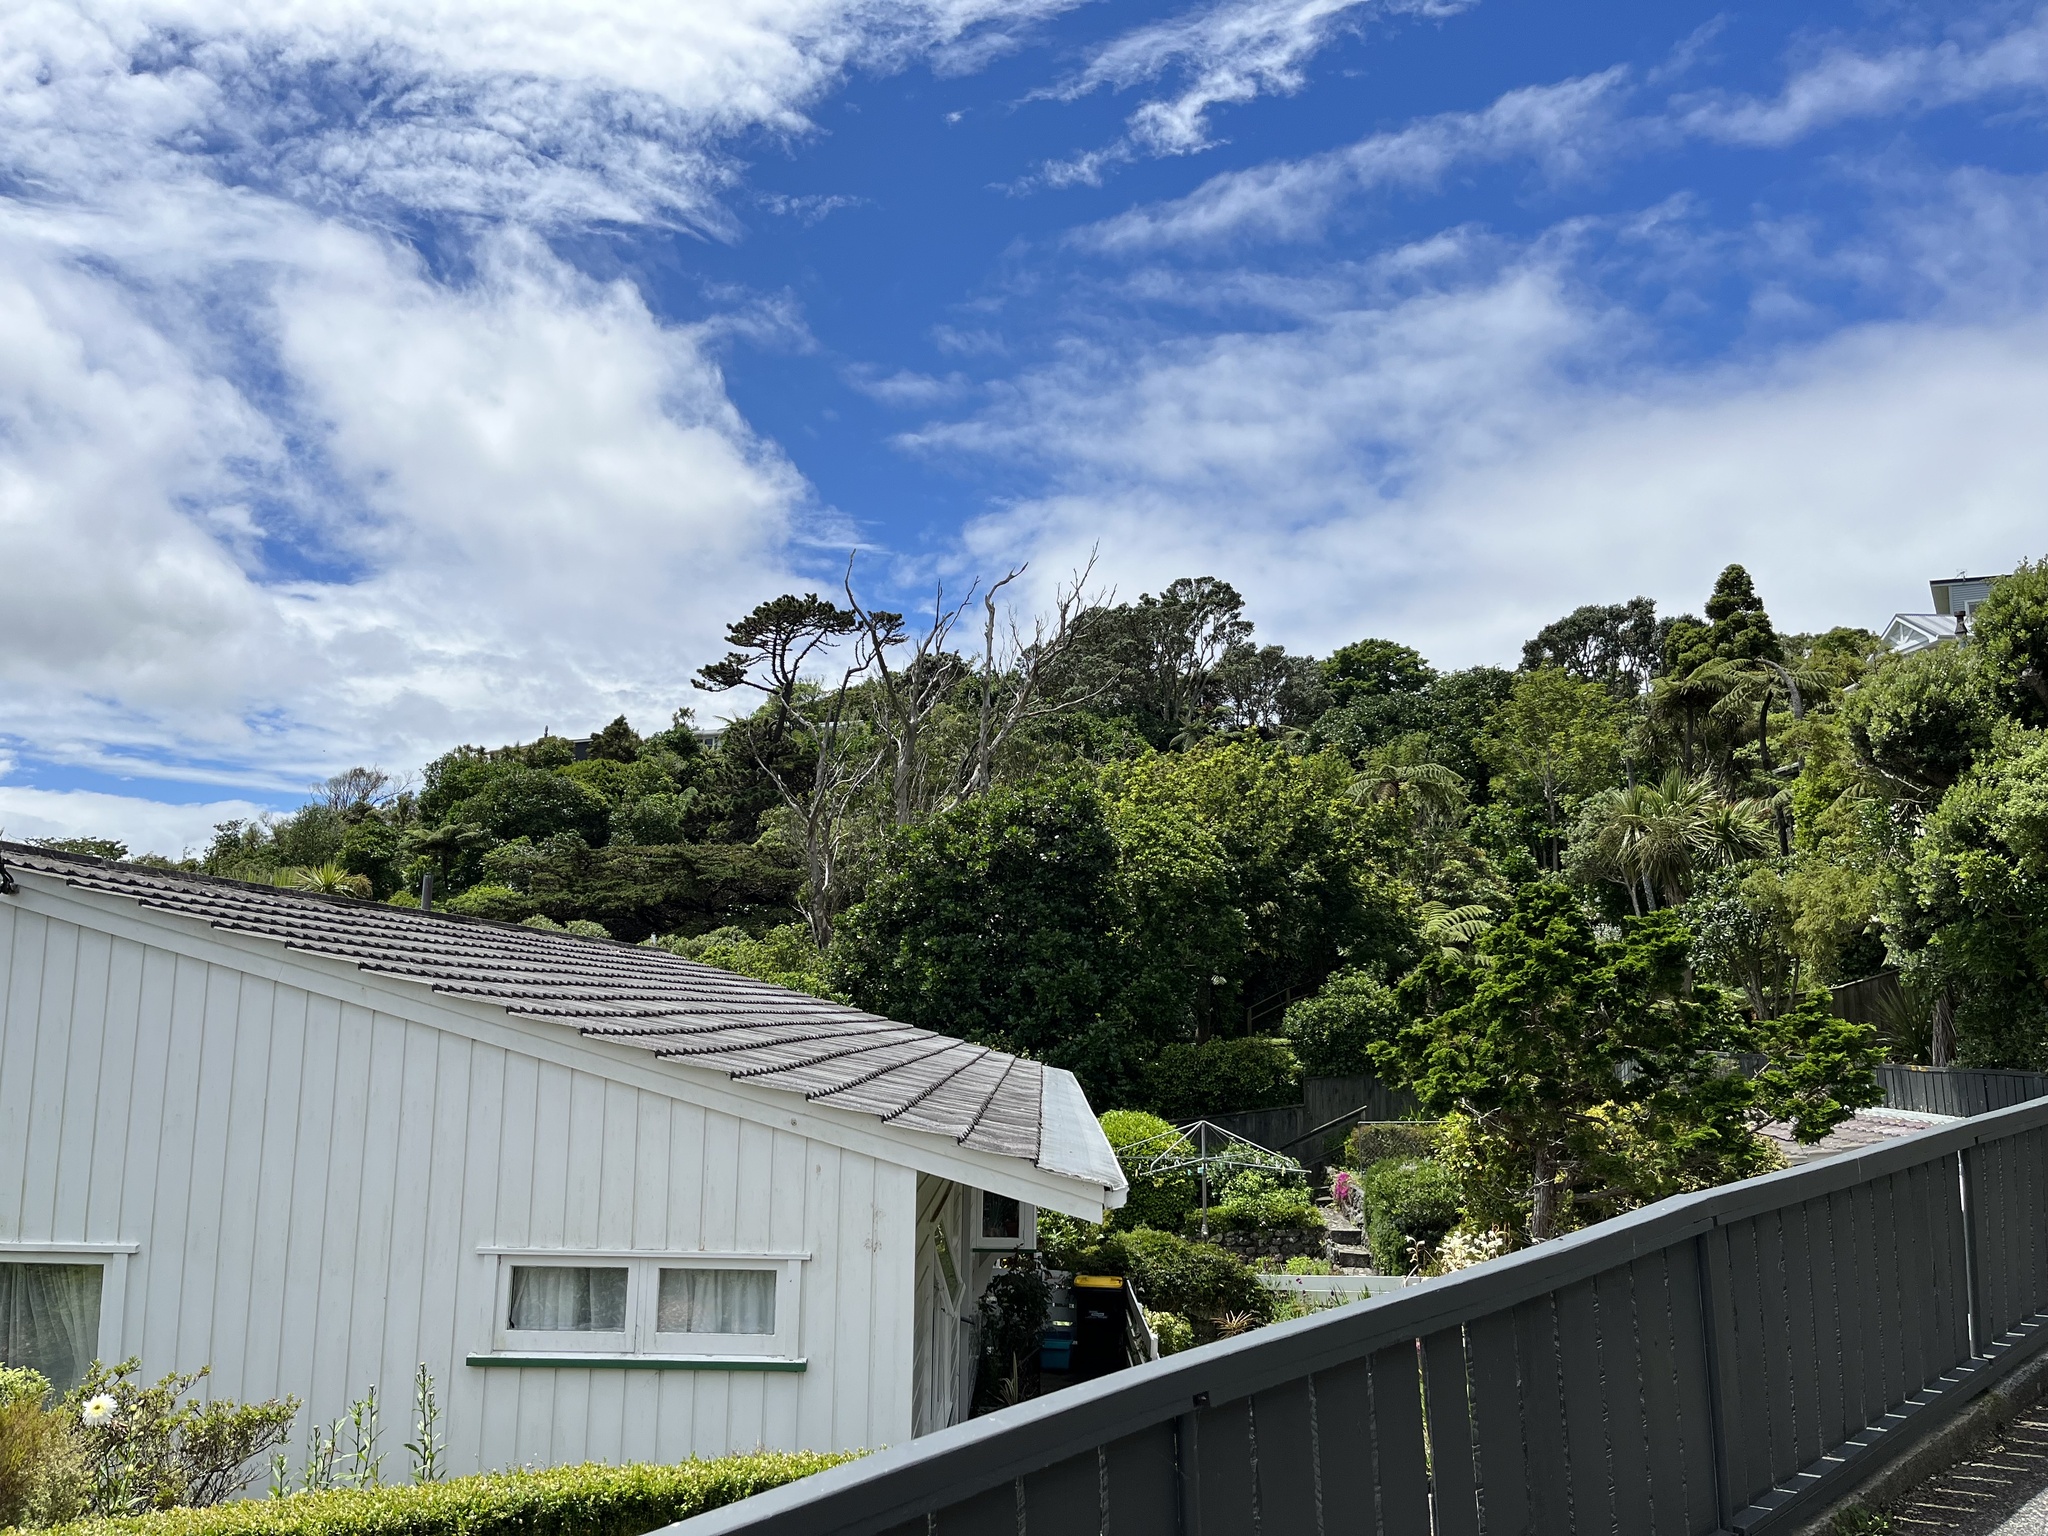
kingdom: Plantae
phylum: Tracheophyta
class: Magnoliopsida
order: Cucurbitales
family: Corynocarpaceae
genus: Corynocarpus
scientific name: Corynocarpus laevigatus
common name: New zealand laurel
